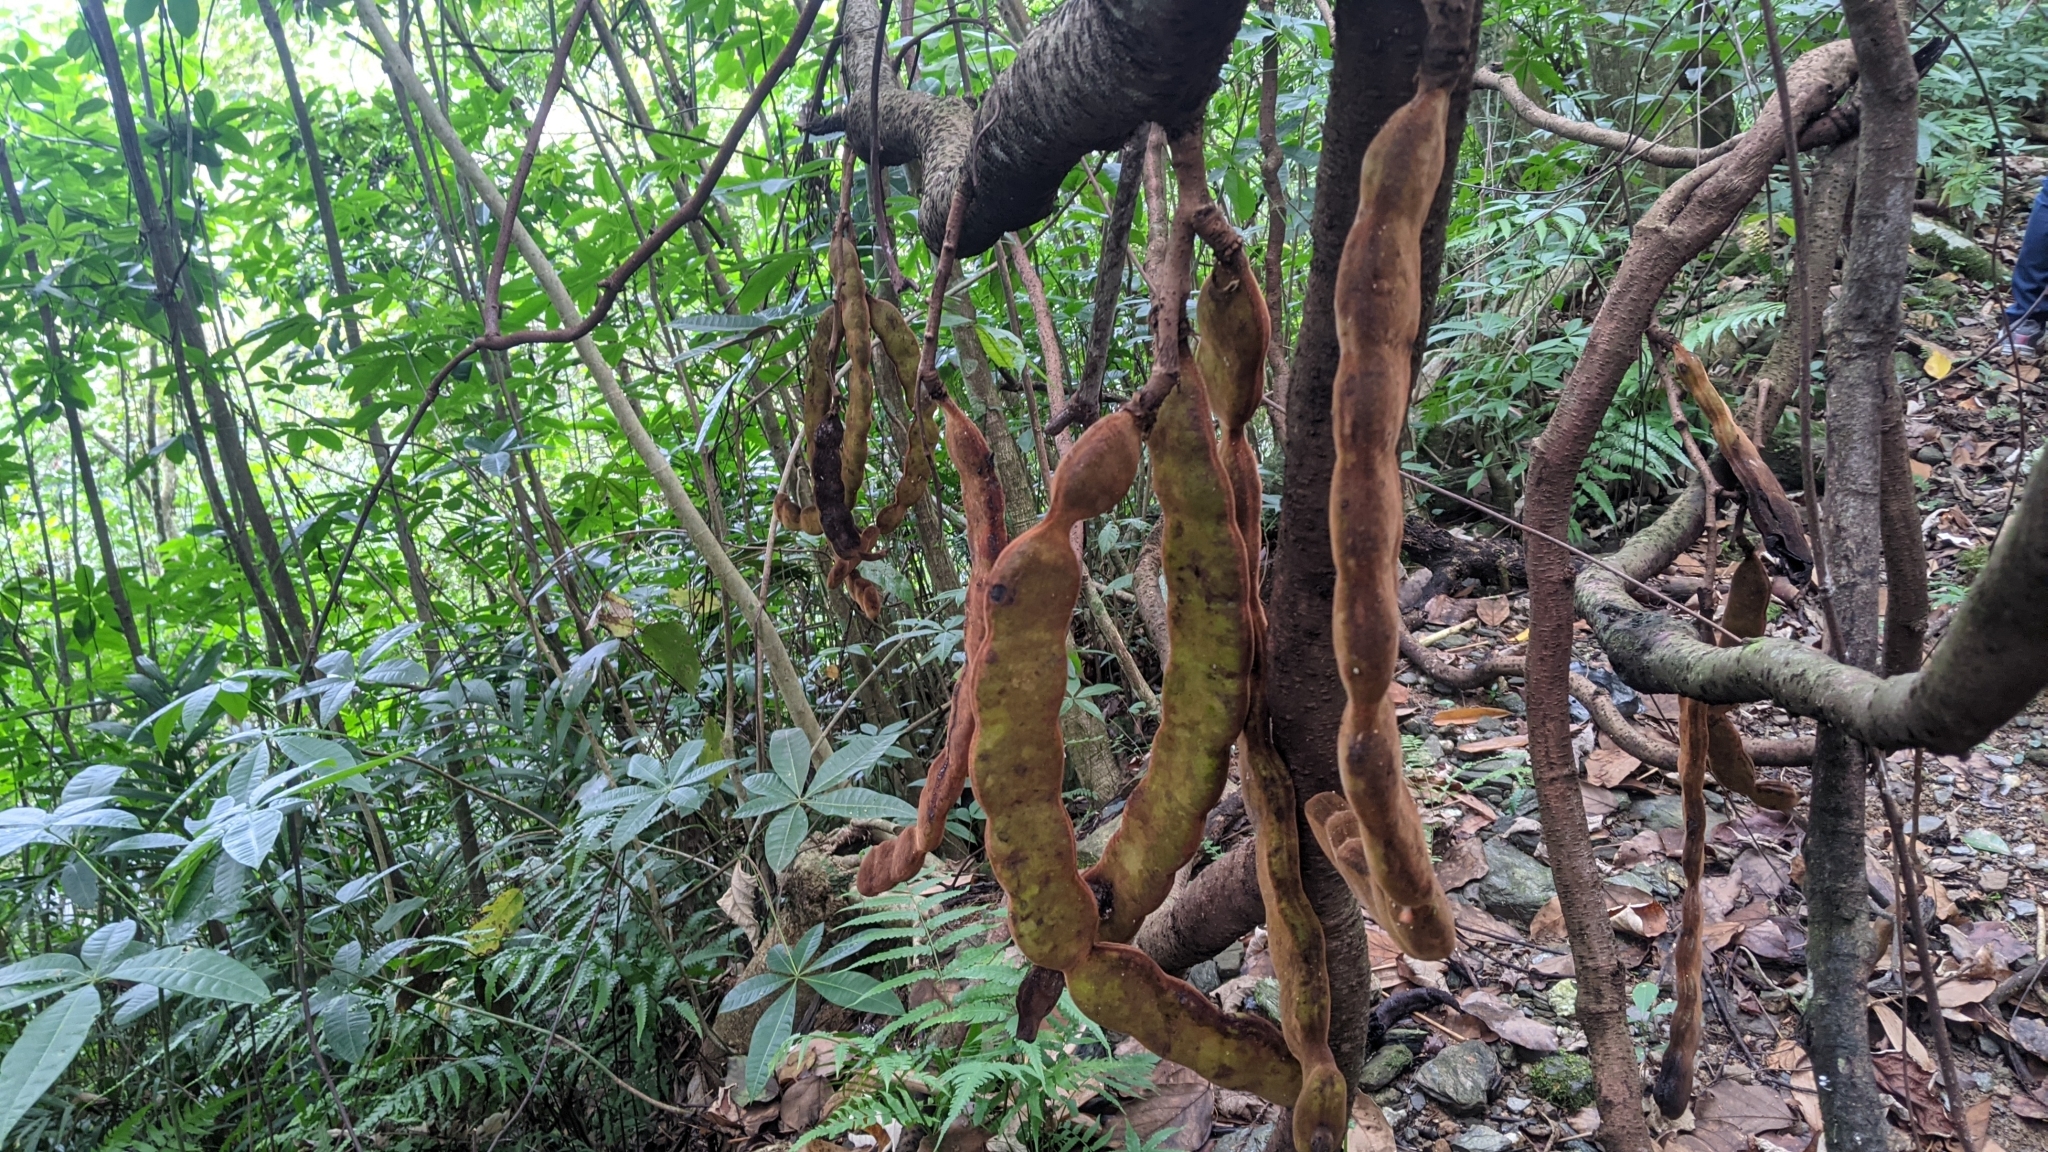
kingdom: Plantae
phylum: Tracheophyta
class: Magnoliopsida
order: Fabales
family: Fabaceae
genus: Mucuna
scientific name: Mucuna macrocarpa
